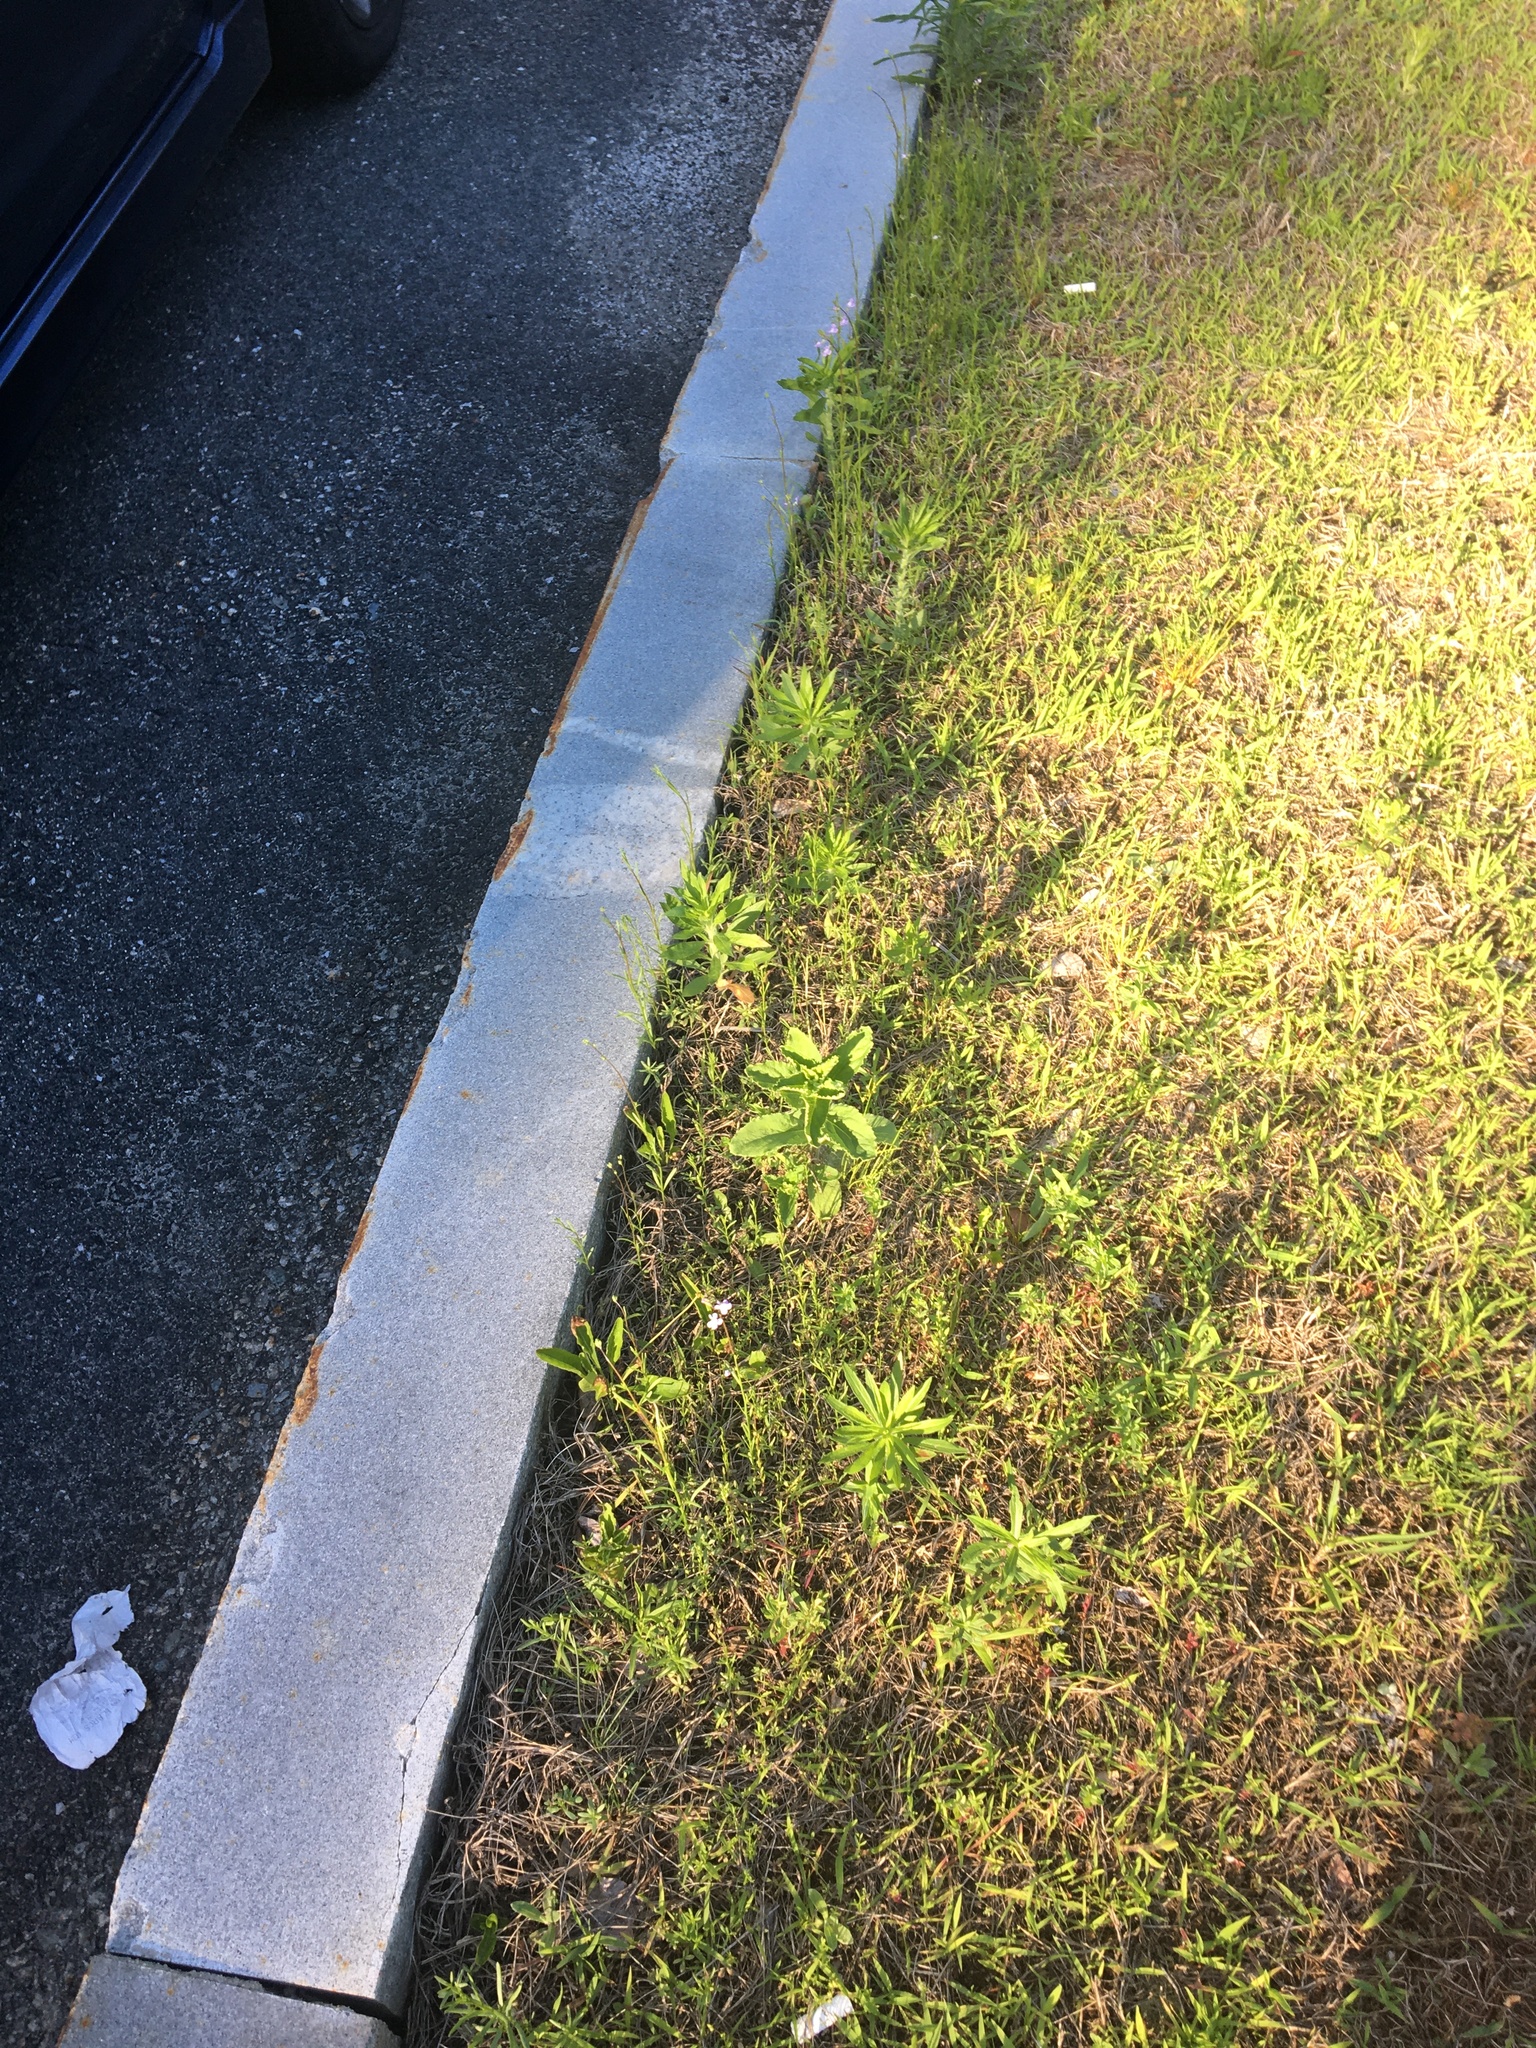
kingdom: Plantae
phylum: Tracheophyta
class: Magnoliopsida
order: Lamiales
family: Plantaginaceae
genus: Nuttallanthus
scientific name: Nuttallanthus canadensis
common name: Blue toadflax
